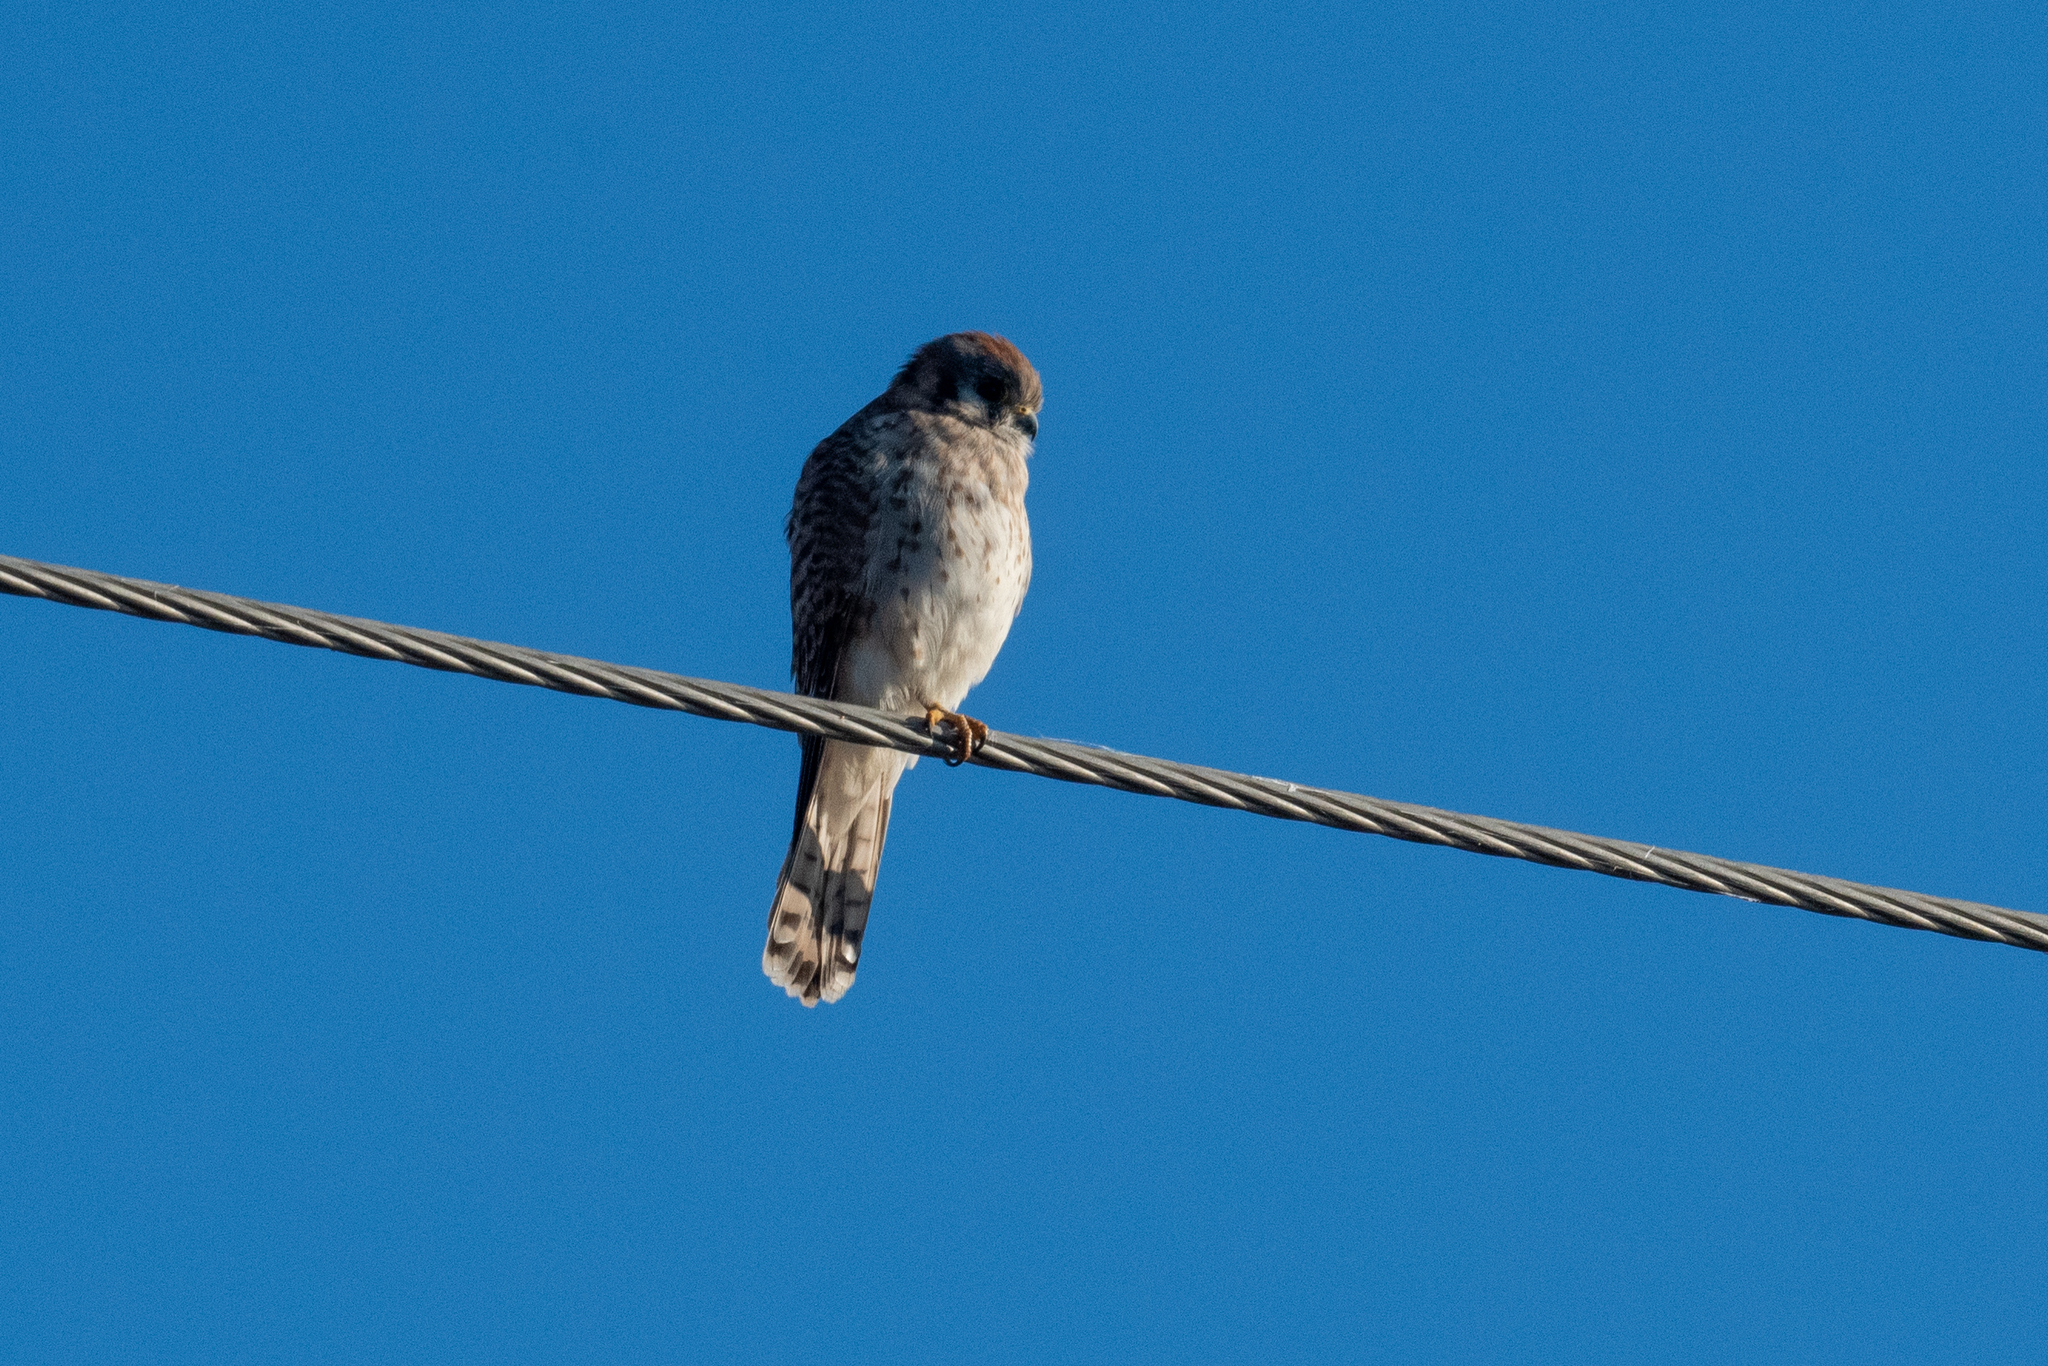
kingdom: Animalia
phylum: Chordata
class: Aves
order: Falconiformes
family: Falconidae
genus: Falco
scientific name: Falco sparverius
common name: American kestrel
